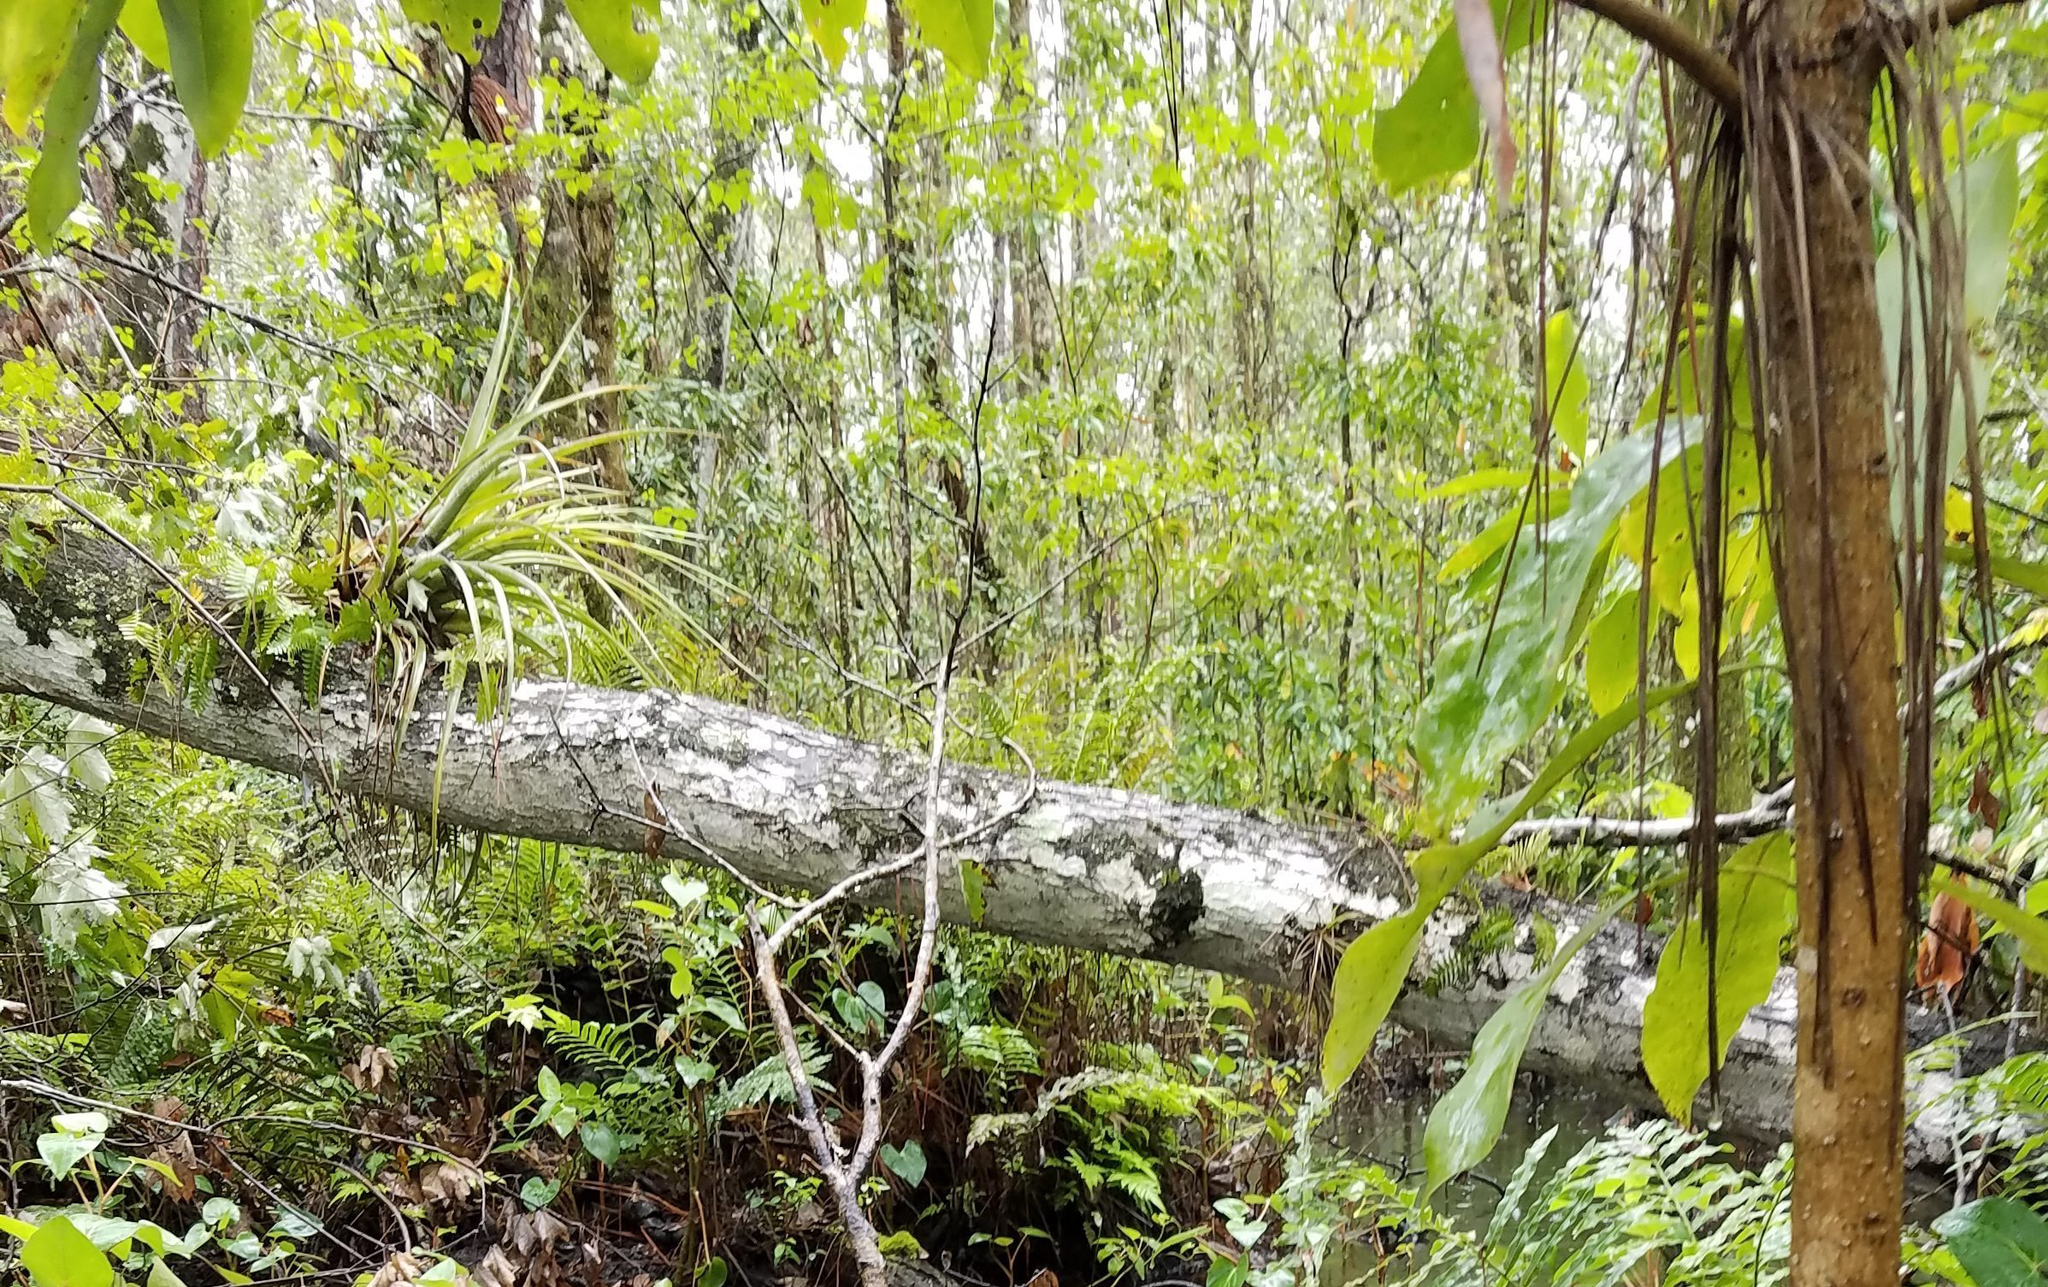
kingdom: Plantae
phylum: Tracheophyta
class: Liliopsida
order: Poales
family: Bromeliaceae
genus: Tillandsia
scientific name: Tillandsia fasciculata
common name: Giant airplant
